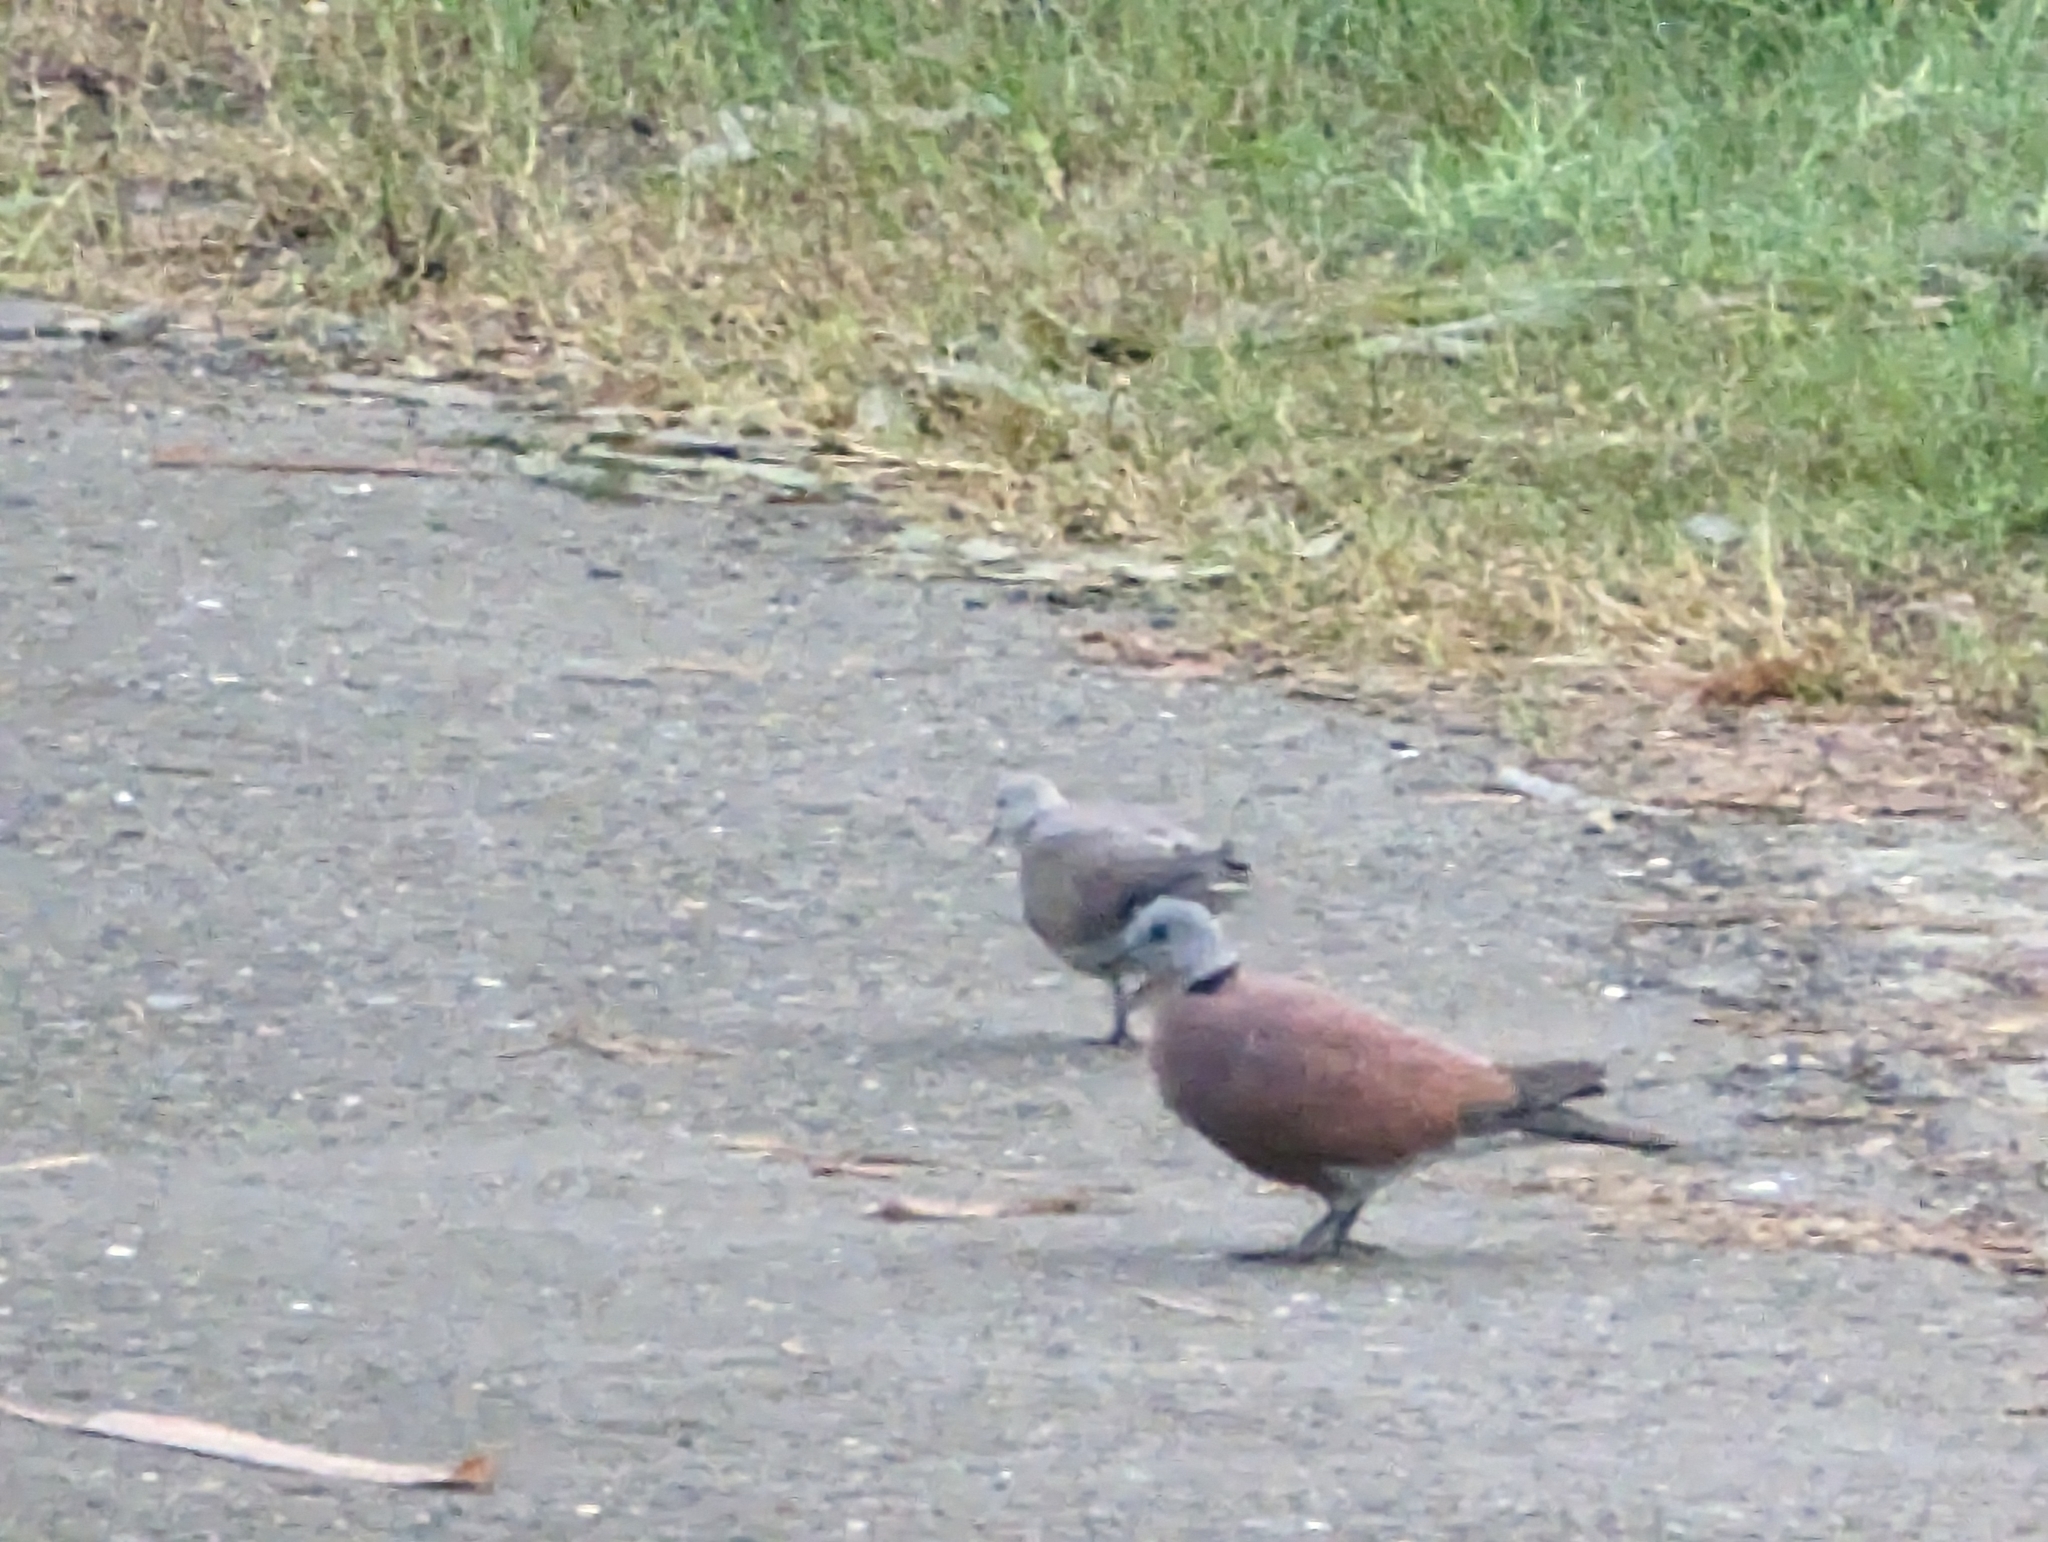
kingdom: Animalia
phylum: Chordata
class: Aves
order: Columbiformes
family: Columbidae
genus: Streptopelia
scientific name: Streptopelia tranquebarica
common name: Red turtle dove
